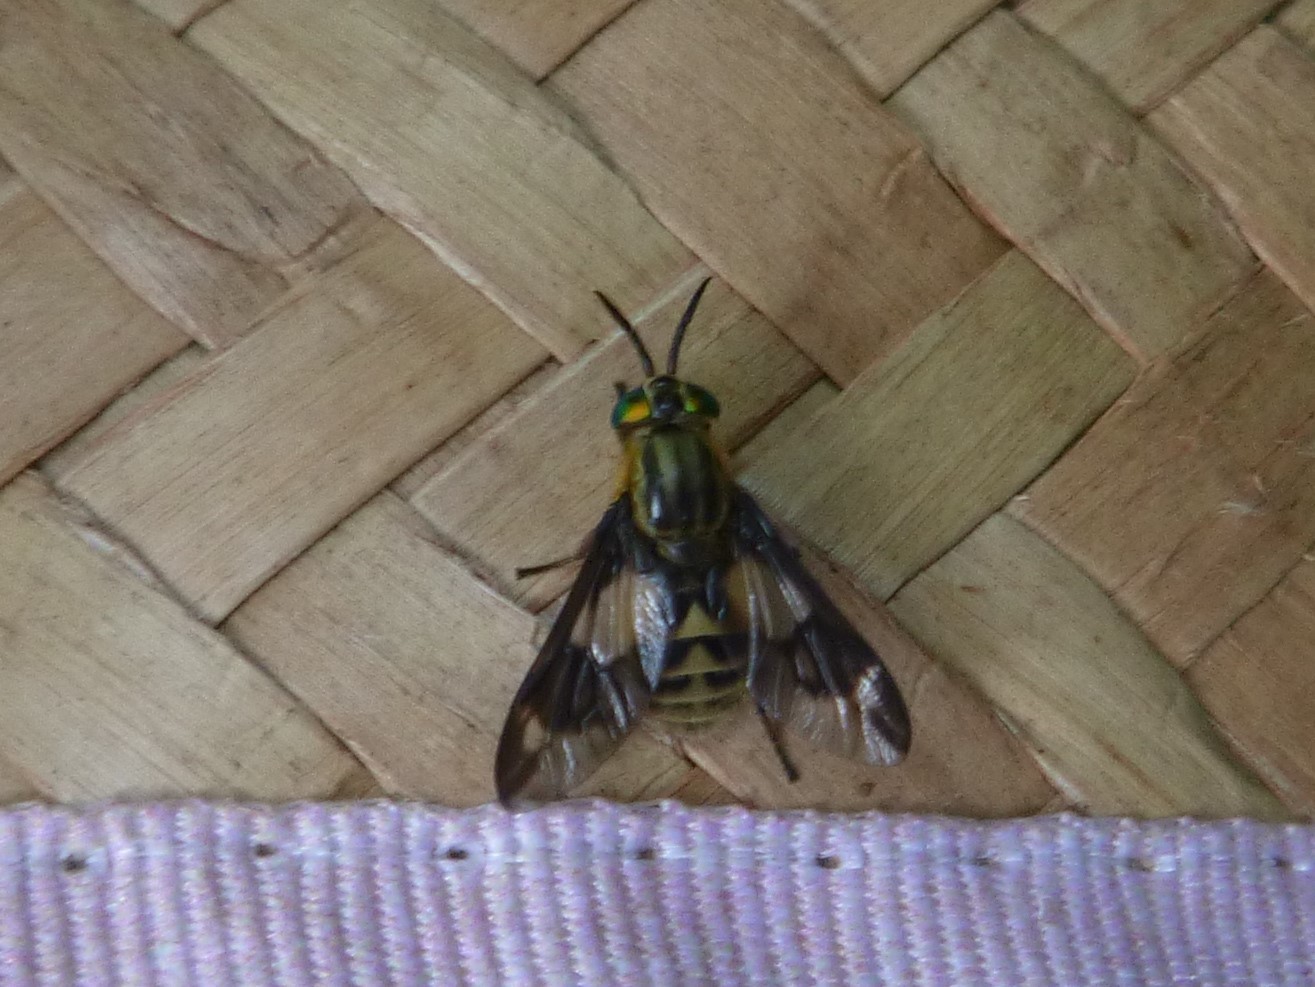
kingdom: Animalia
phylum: Arthropoda
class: Insecta
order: Diptera
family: Tabanidae
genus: Chrysops
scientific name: Chrysops relictus
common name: Twin-lobed deerfly
